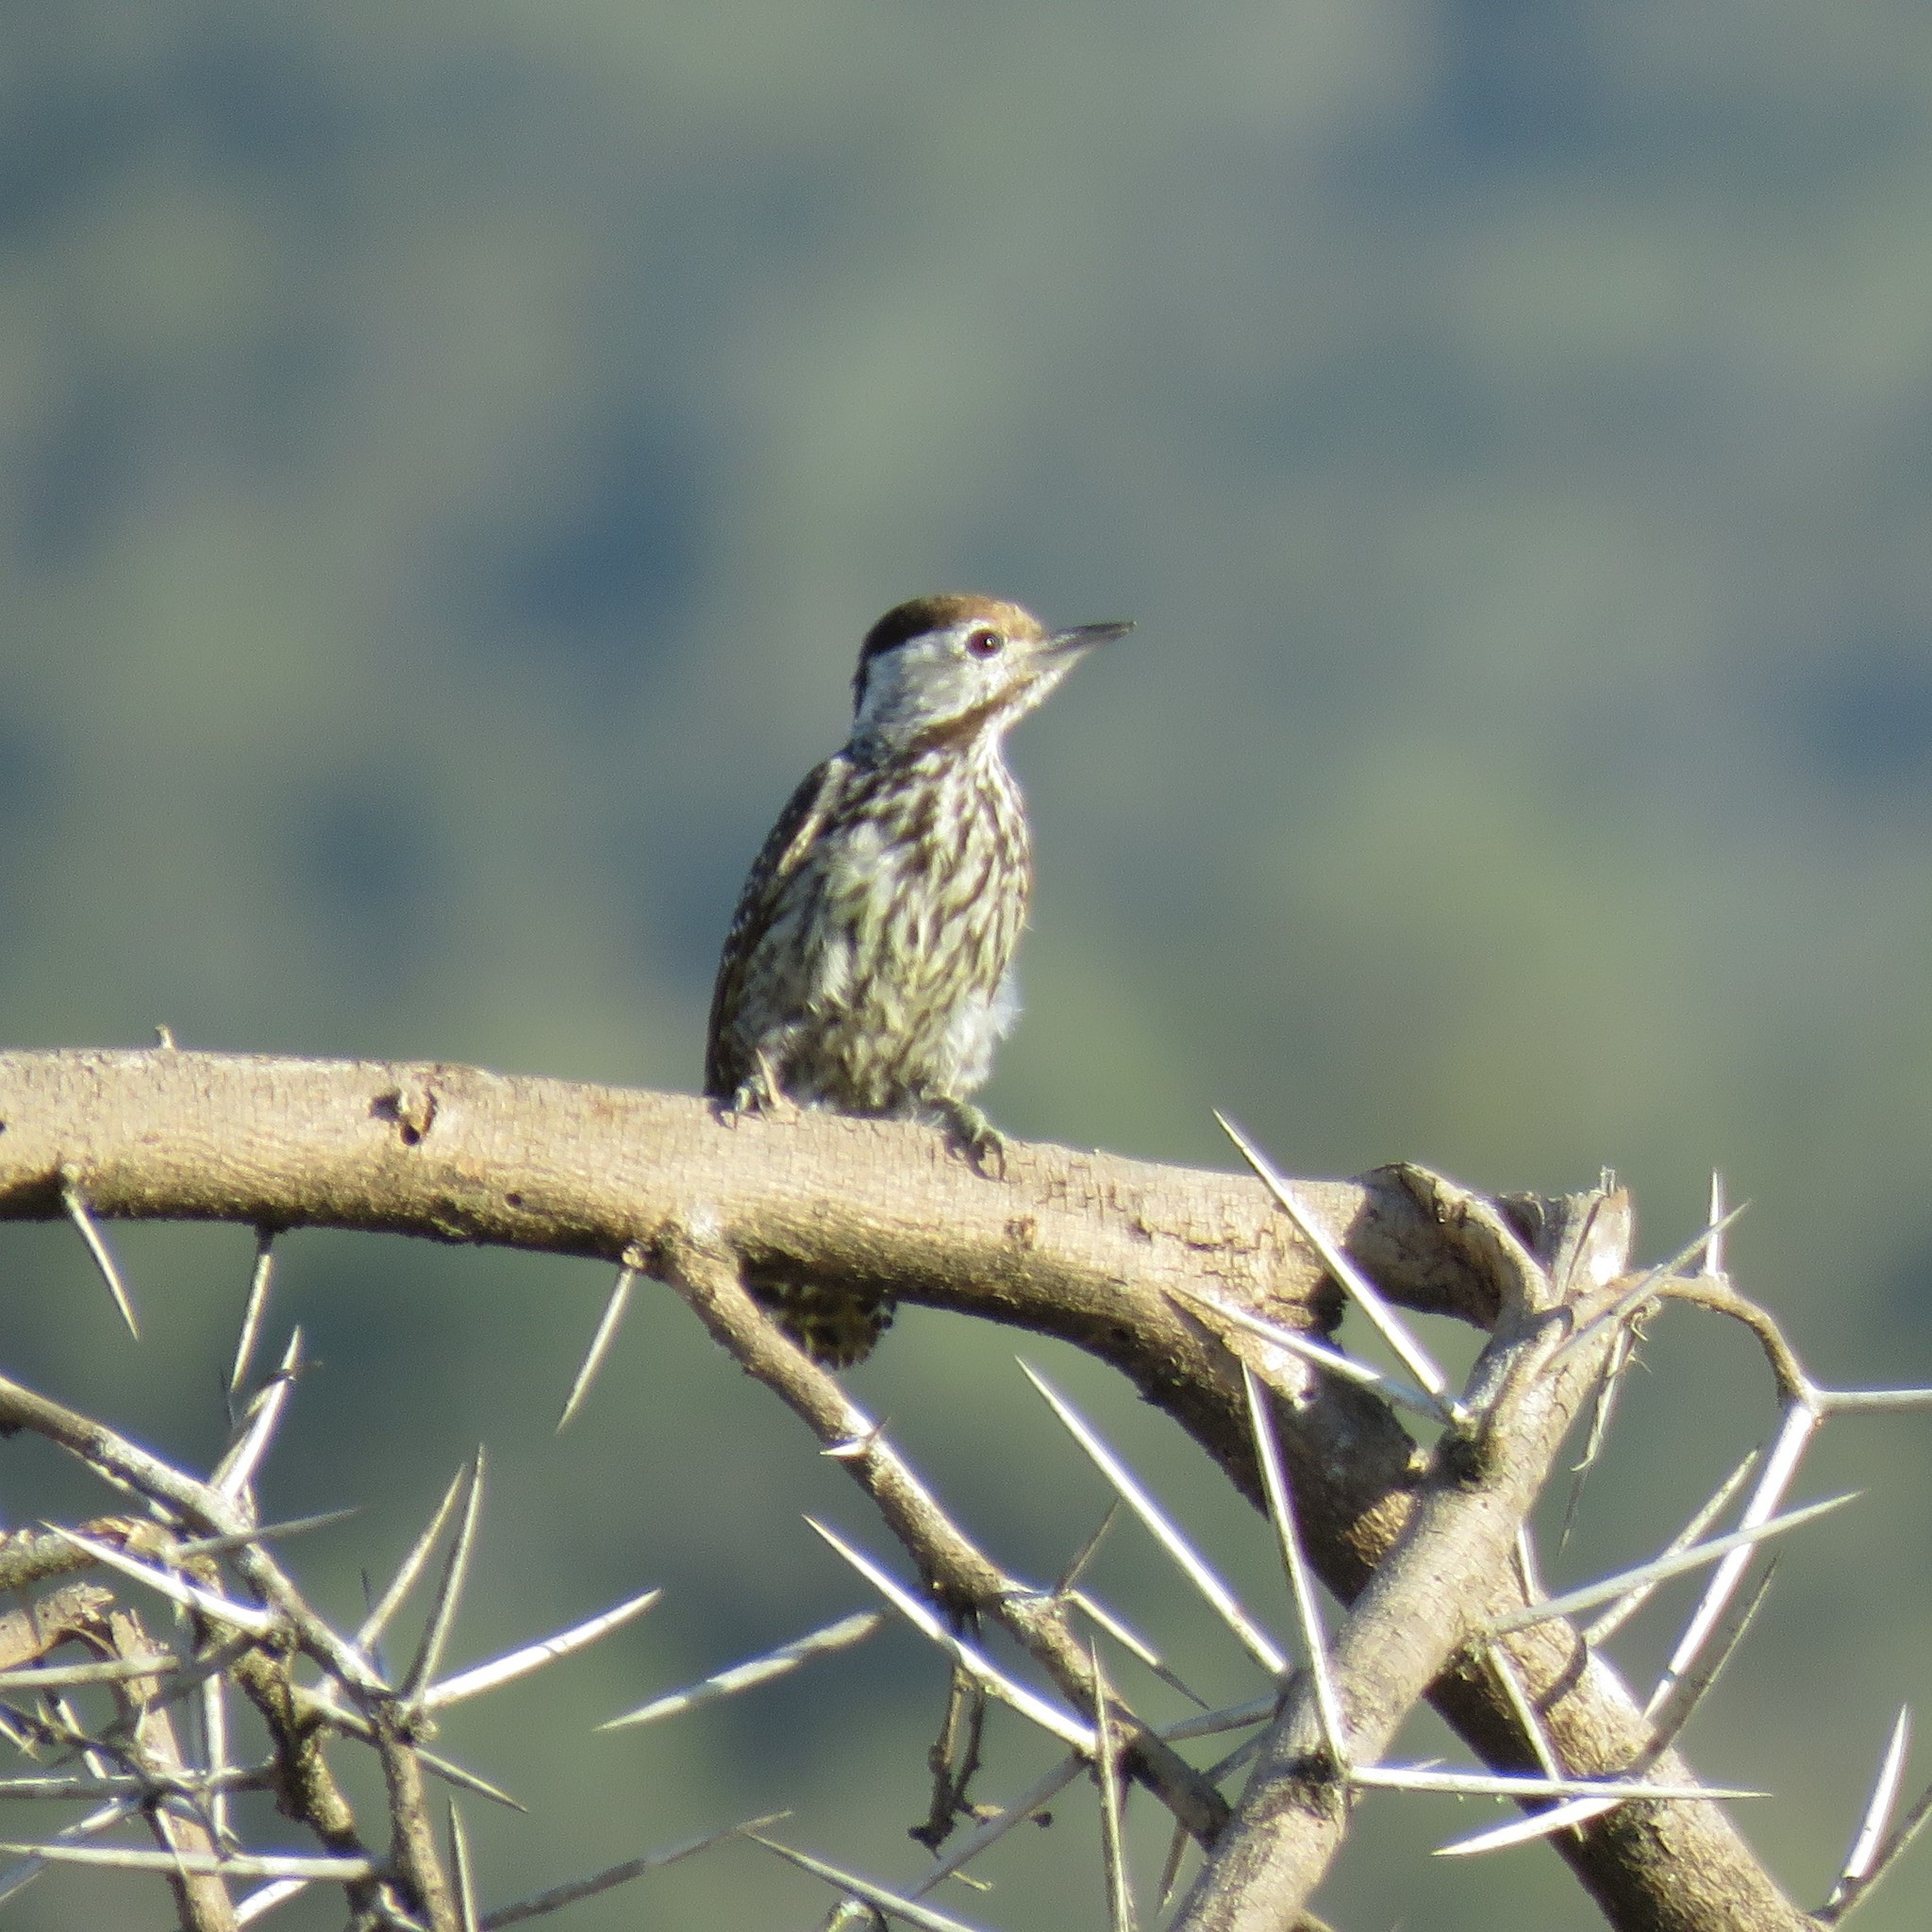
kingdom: Animalia
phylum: Chordata
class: Aves
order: Piciformes
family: Picidae
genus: Dendropicos
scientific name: Dendropicos fuscescens
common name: Cardinal woodpecker
